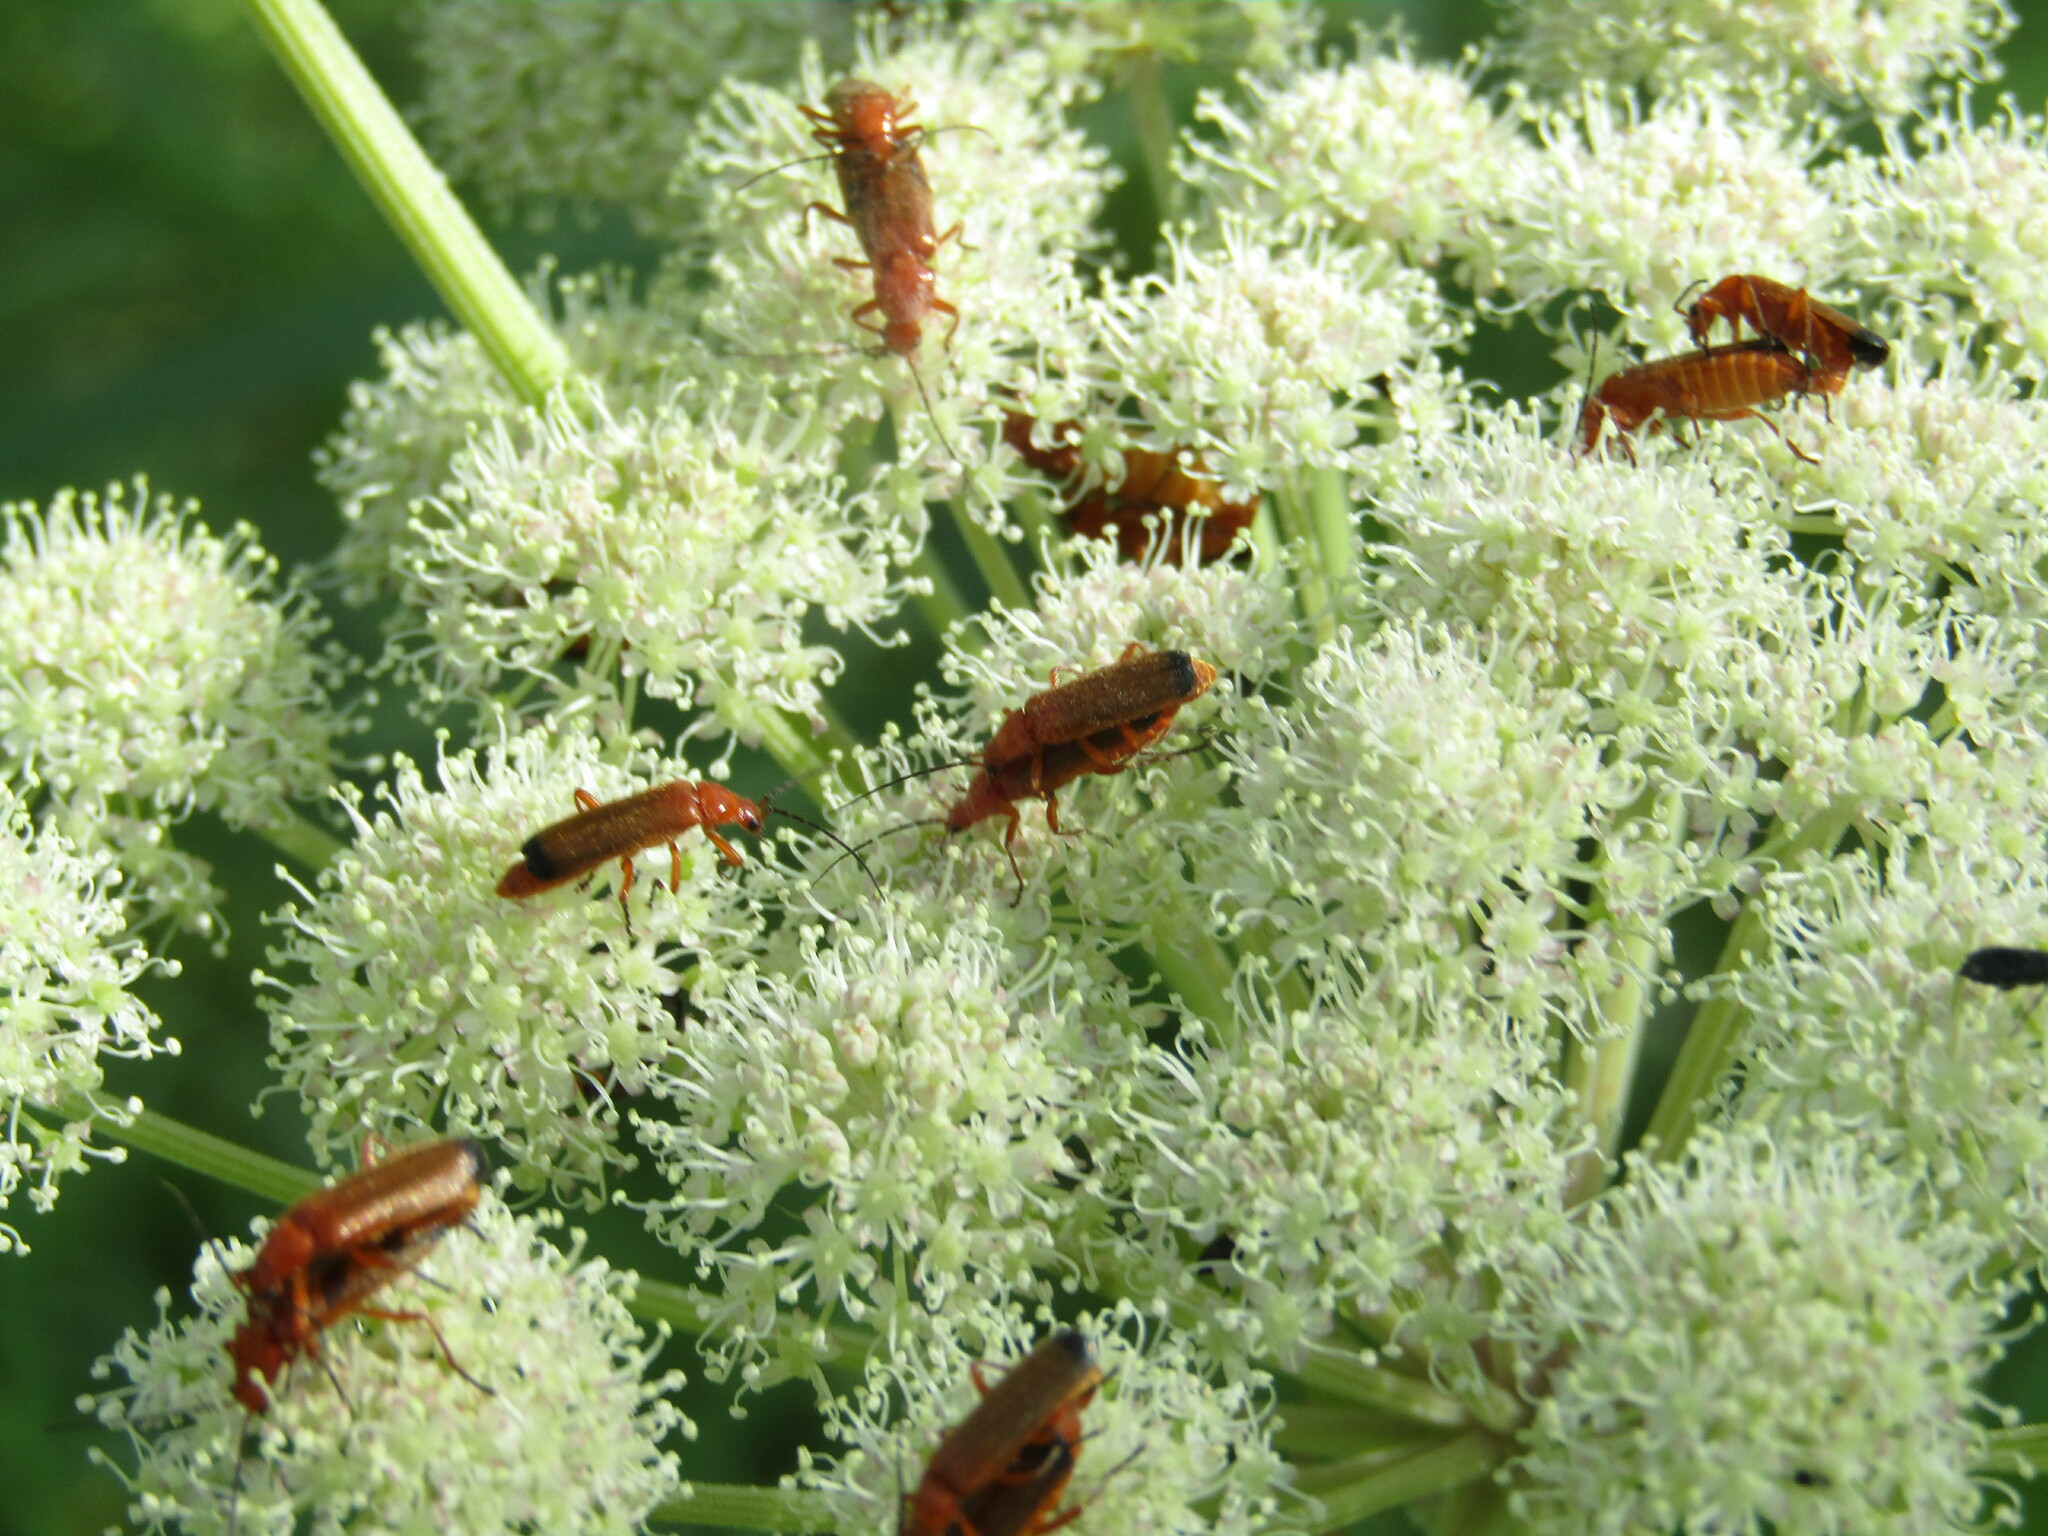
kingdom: Animalia
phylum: Arthropoda
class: Insecta
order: Coleoptera
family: Cantharidae
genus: Rhagonycha
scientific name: Rhagonycha fulva
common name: Common red soldier beetle
